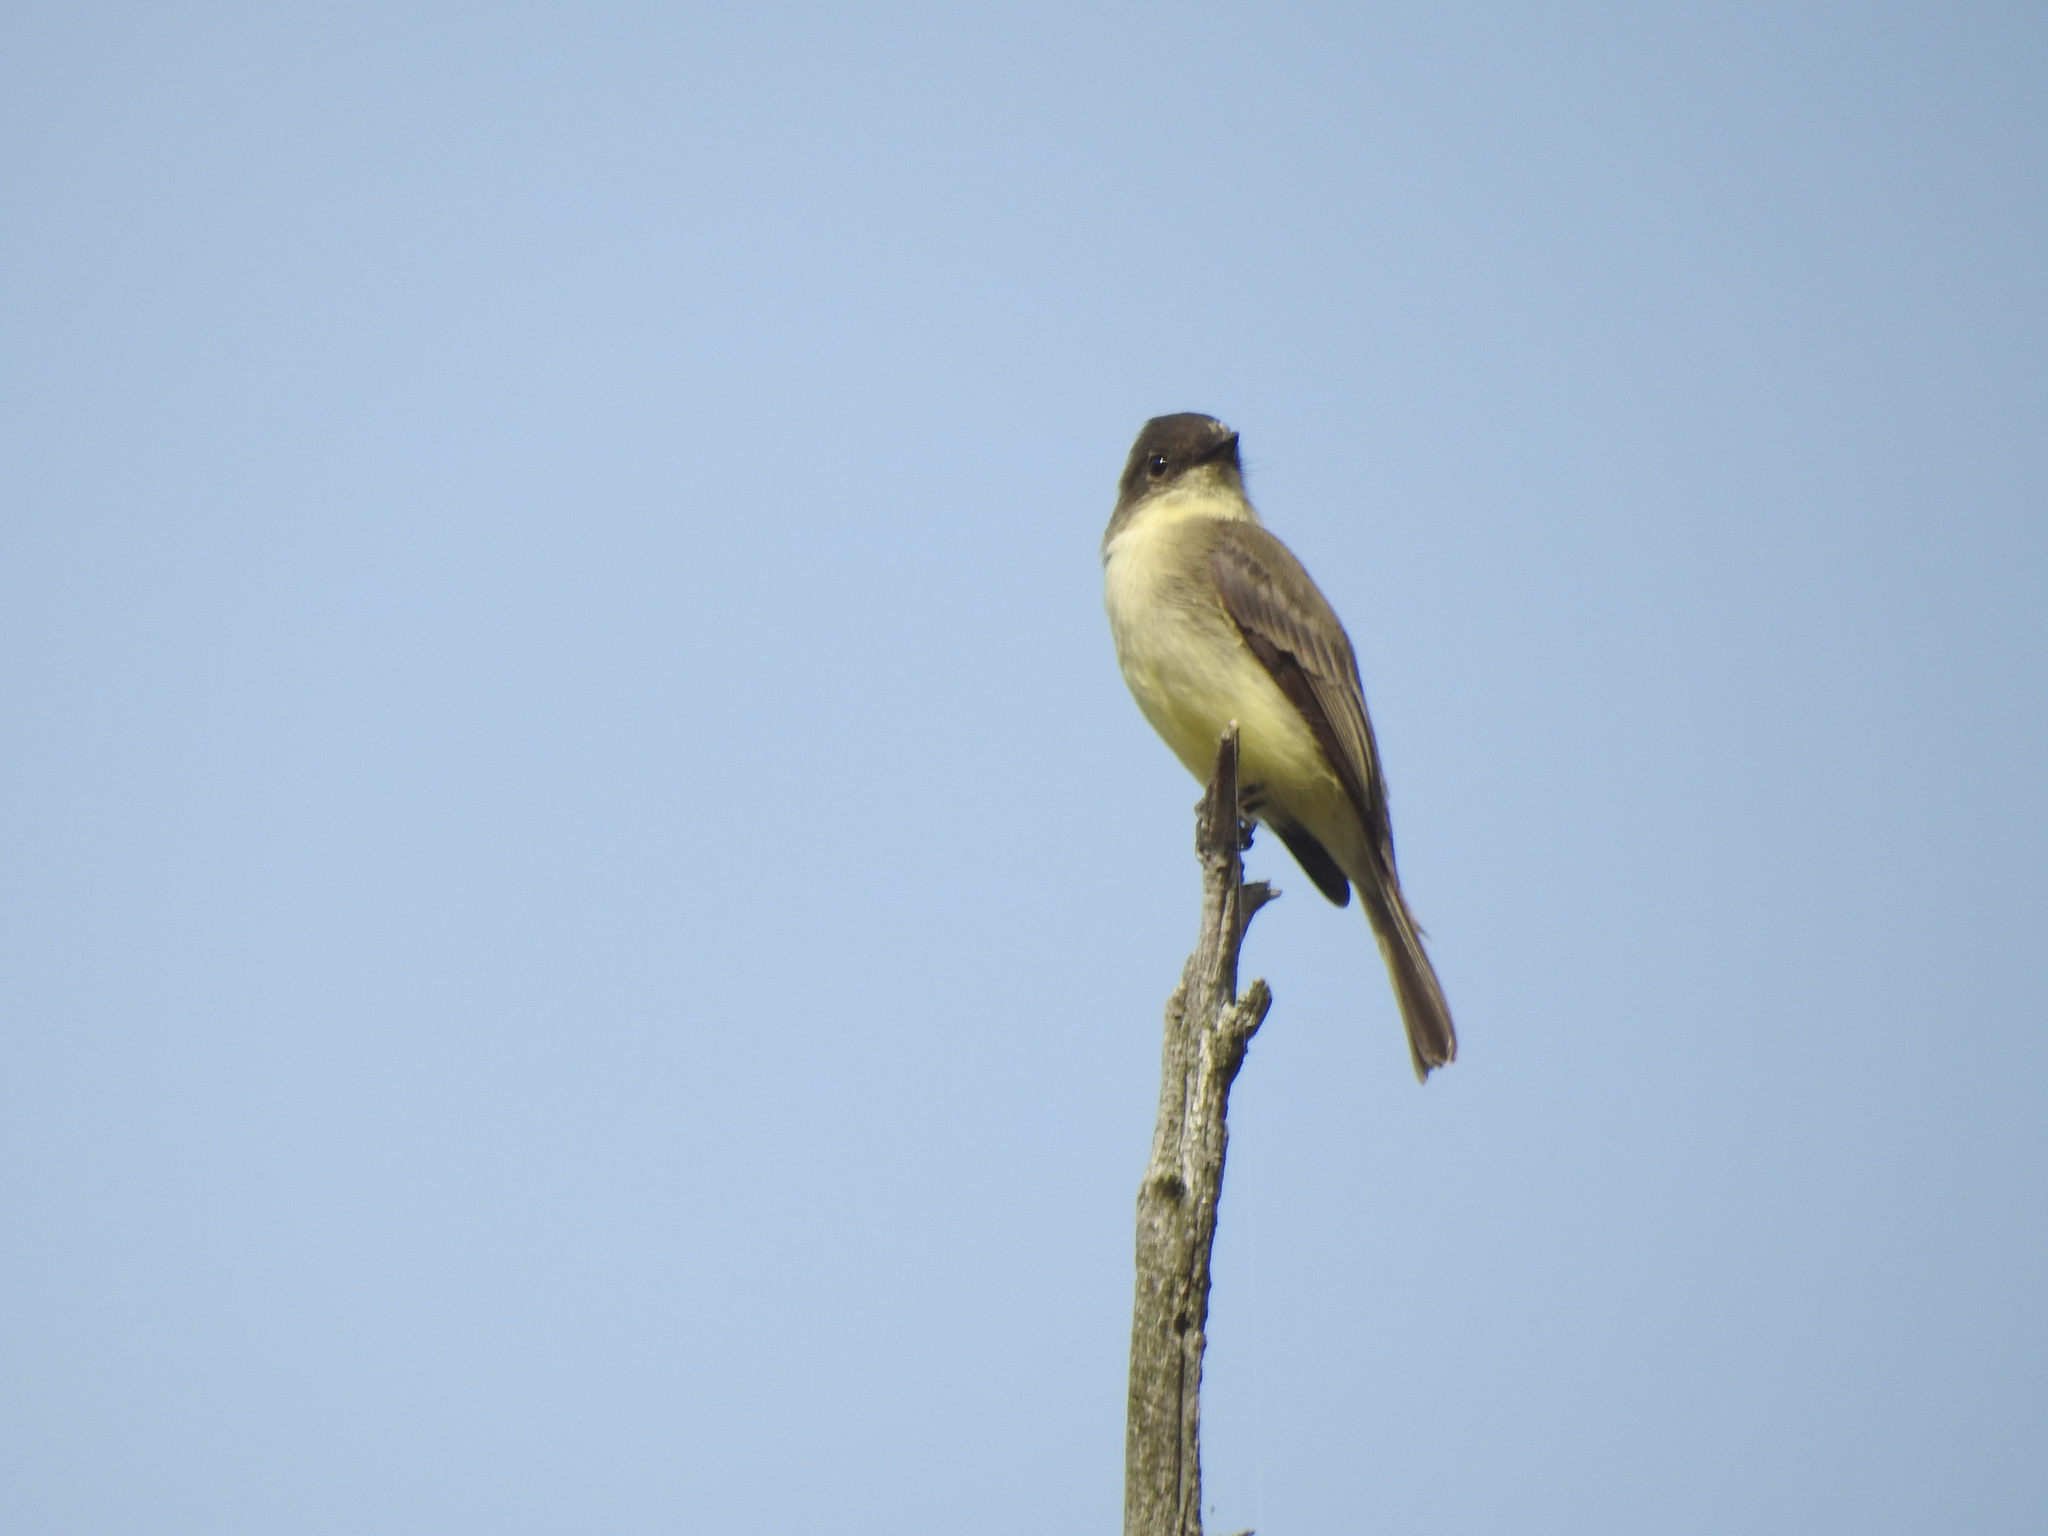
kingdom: Animalia
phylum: Chordata
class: Aves
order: Passeriformes
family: Tyrannidae
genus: Sayornis
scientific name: Sayornis phoebe
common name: Eastern phoebe
